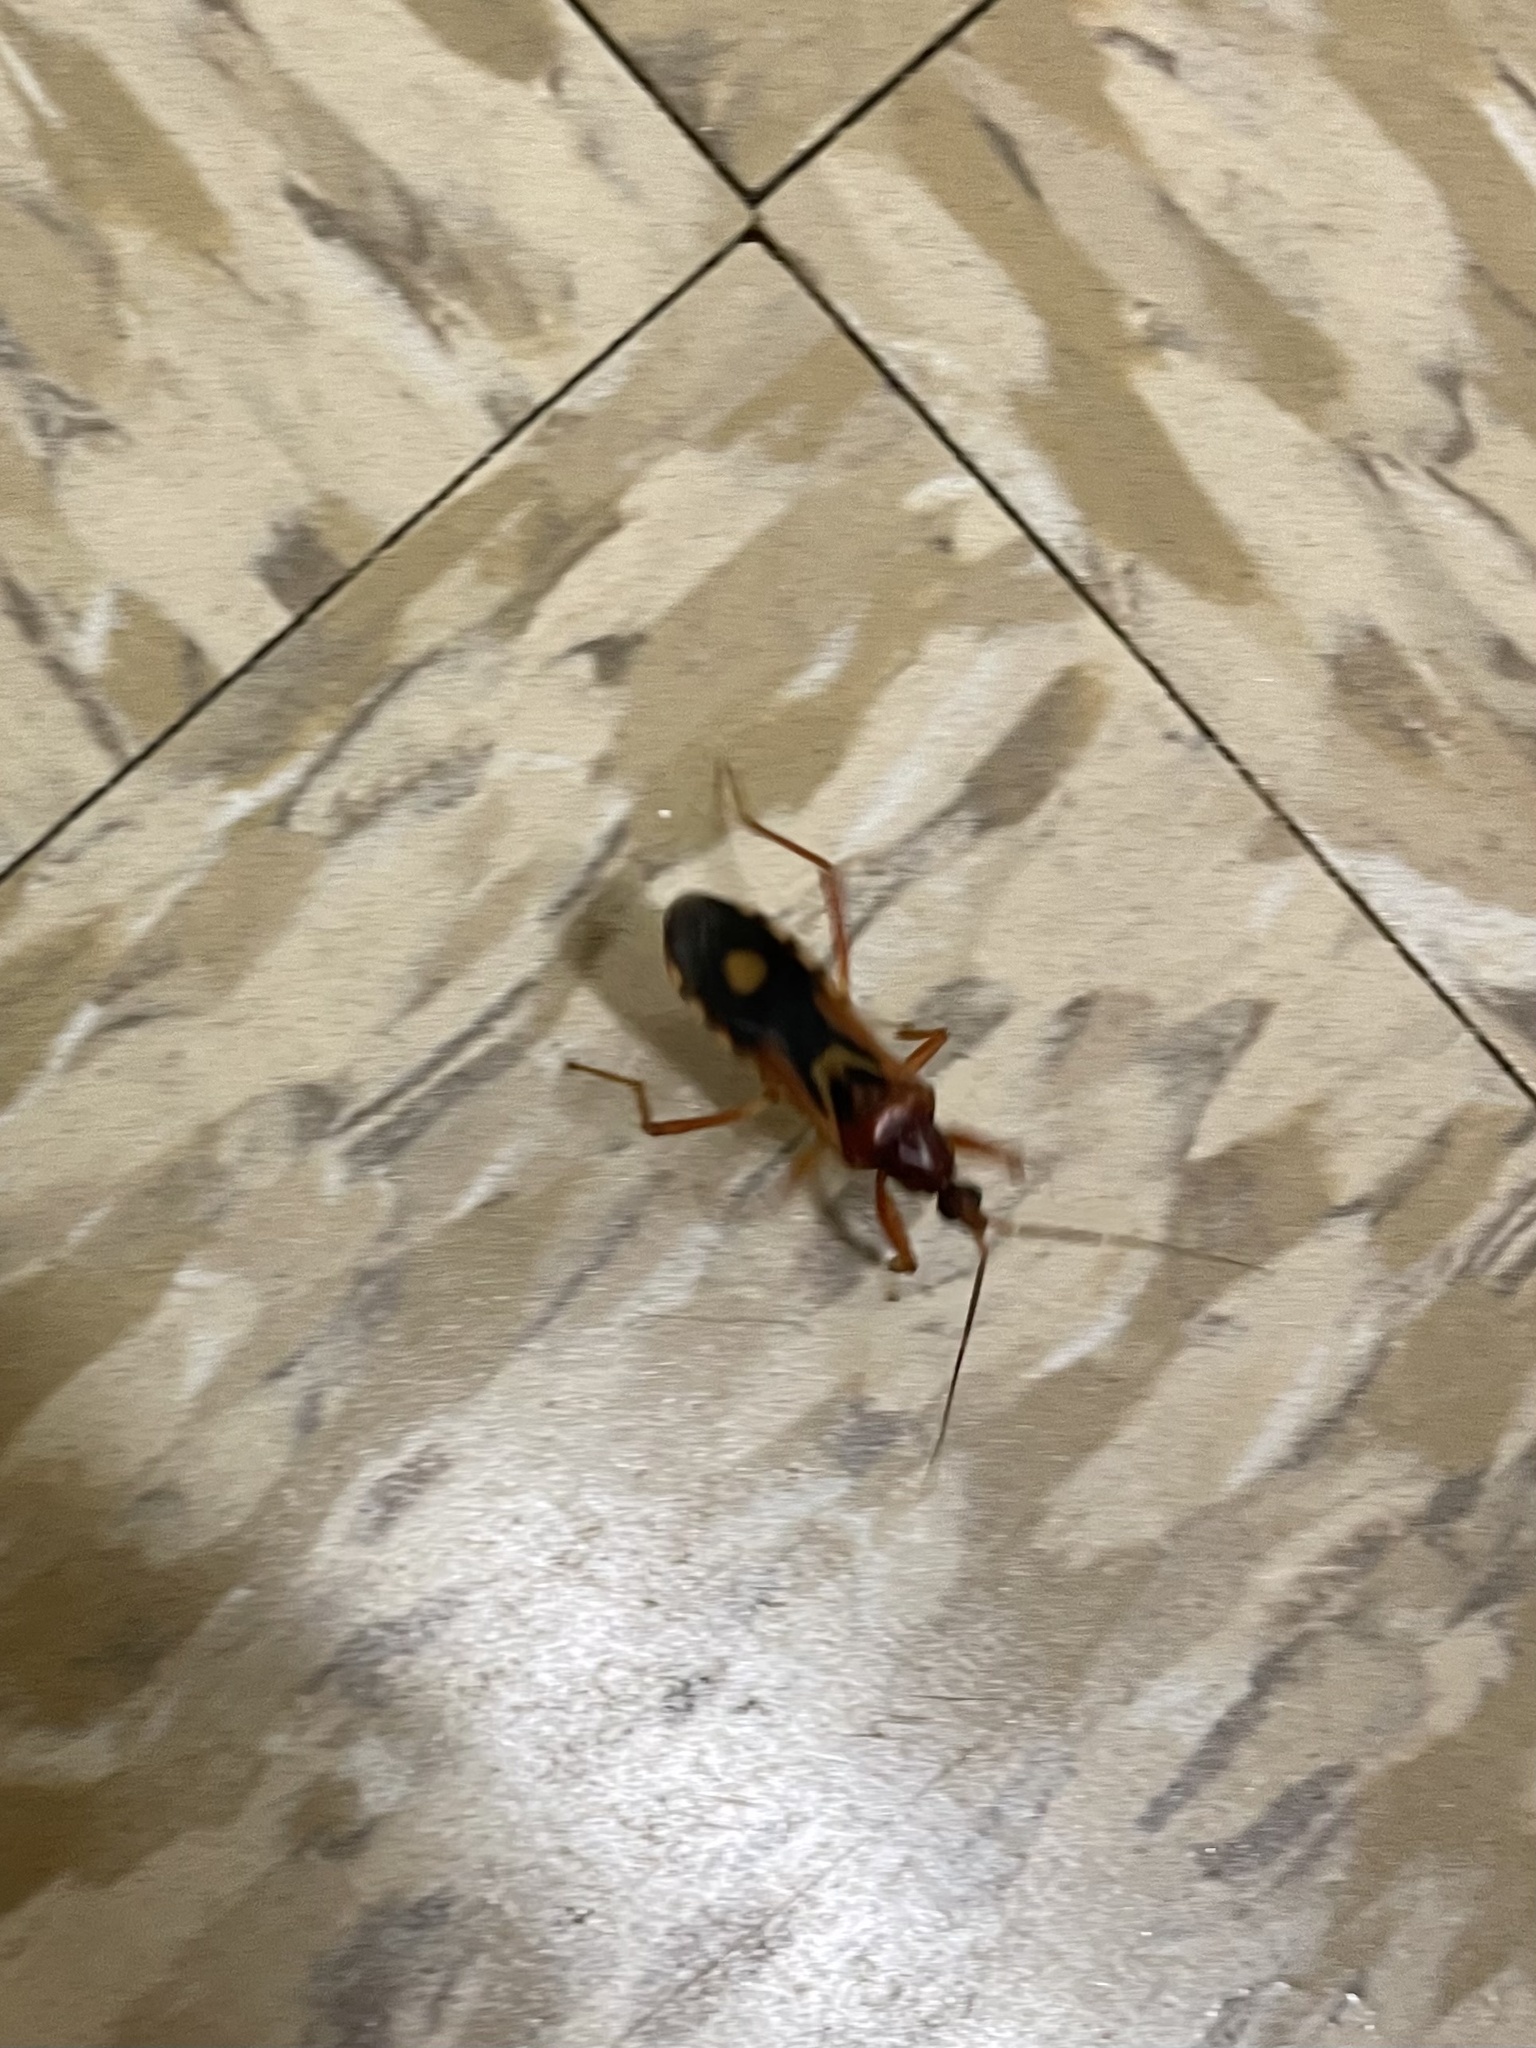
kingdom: Animalia
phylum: Arthropoda
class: Insecta
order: Hemiptera
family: Reduviidae
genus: Rasahus
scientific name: Rasahus thoracicus
